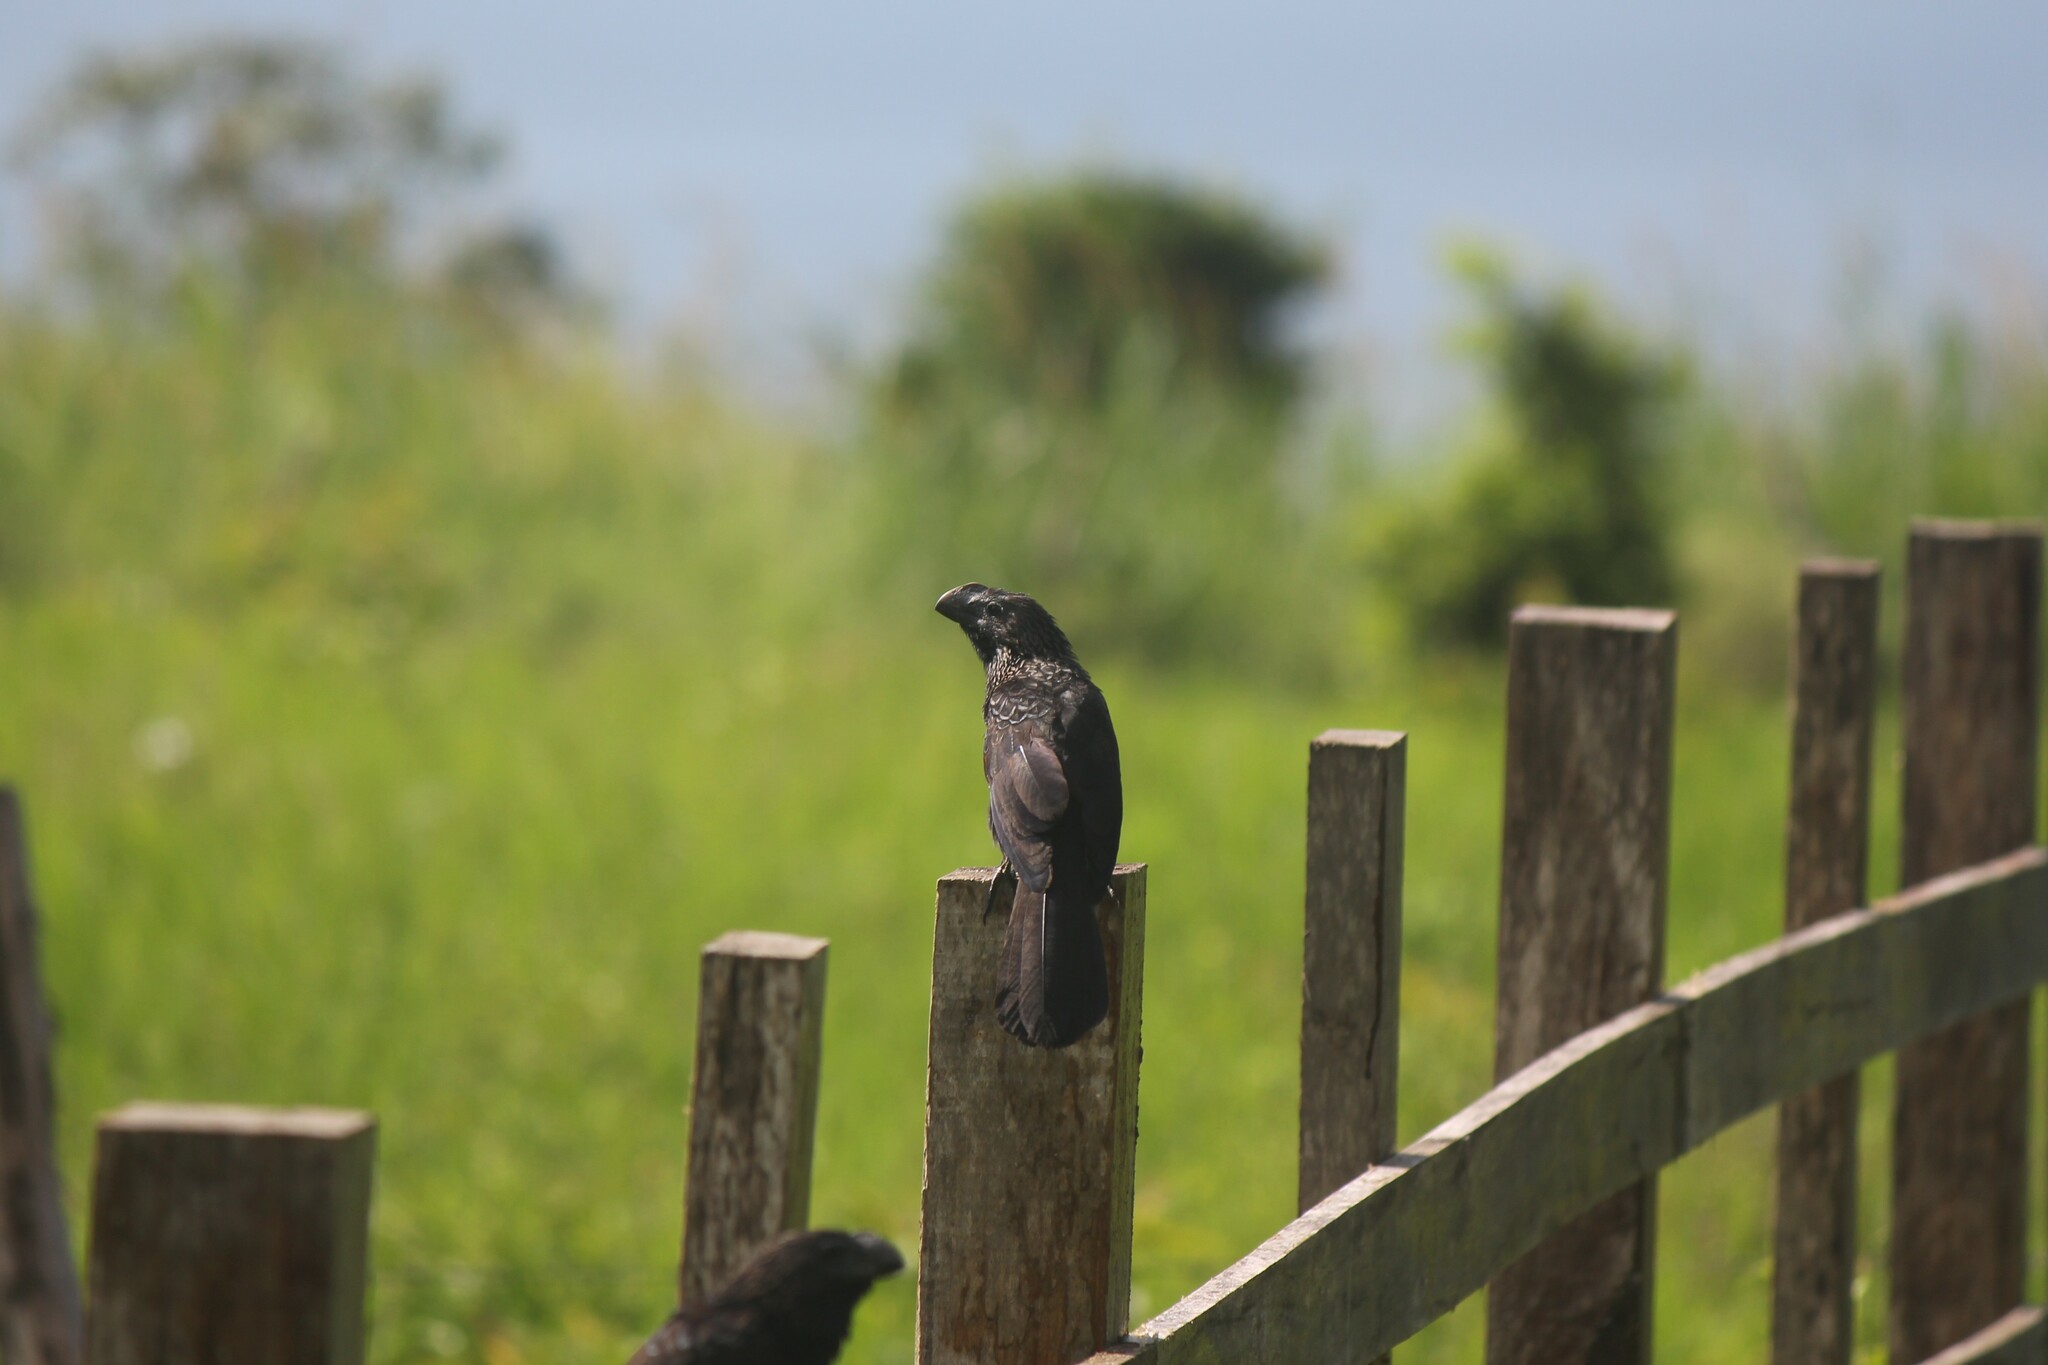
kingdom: Animalia
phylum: Chordata
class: Aves
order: Cuculiformes
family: Cuculidae
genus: Crotophaga
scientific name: Crotophaga ani
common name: Smooth-billed ani
